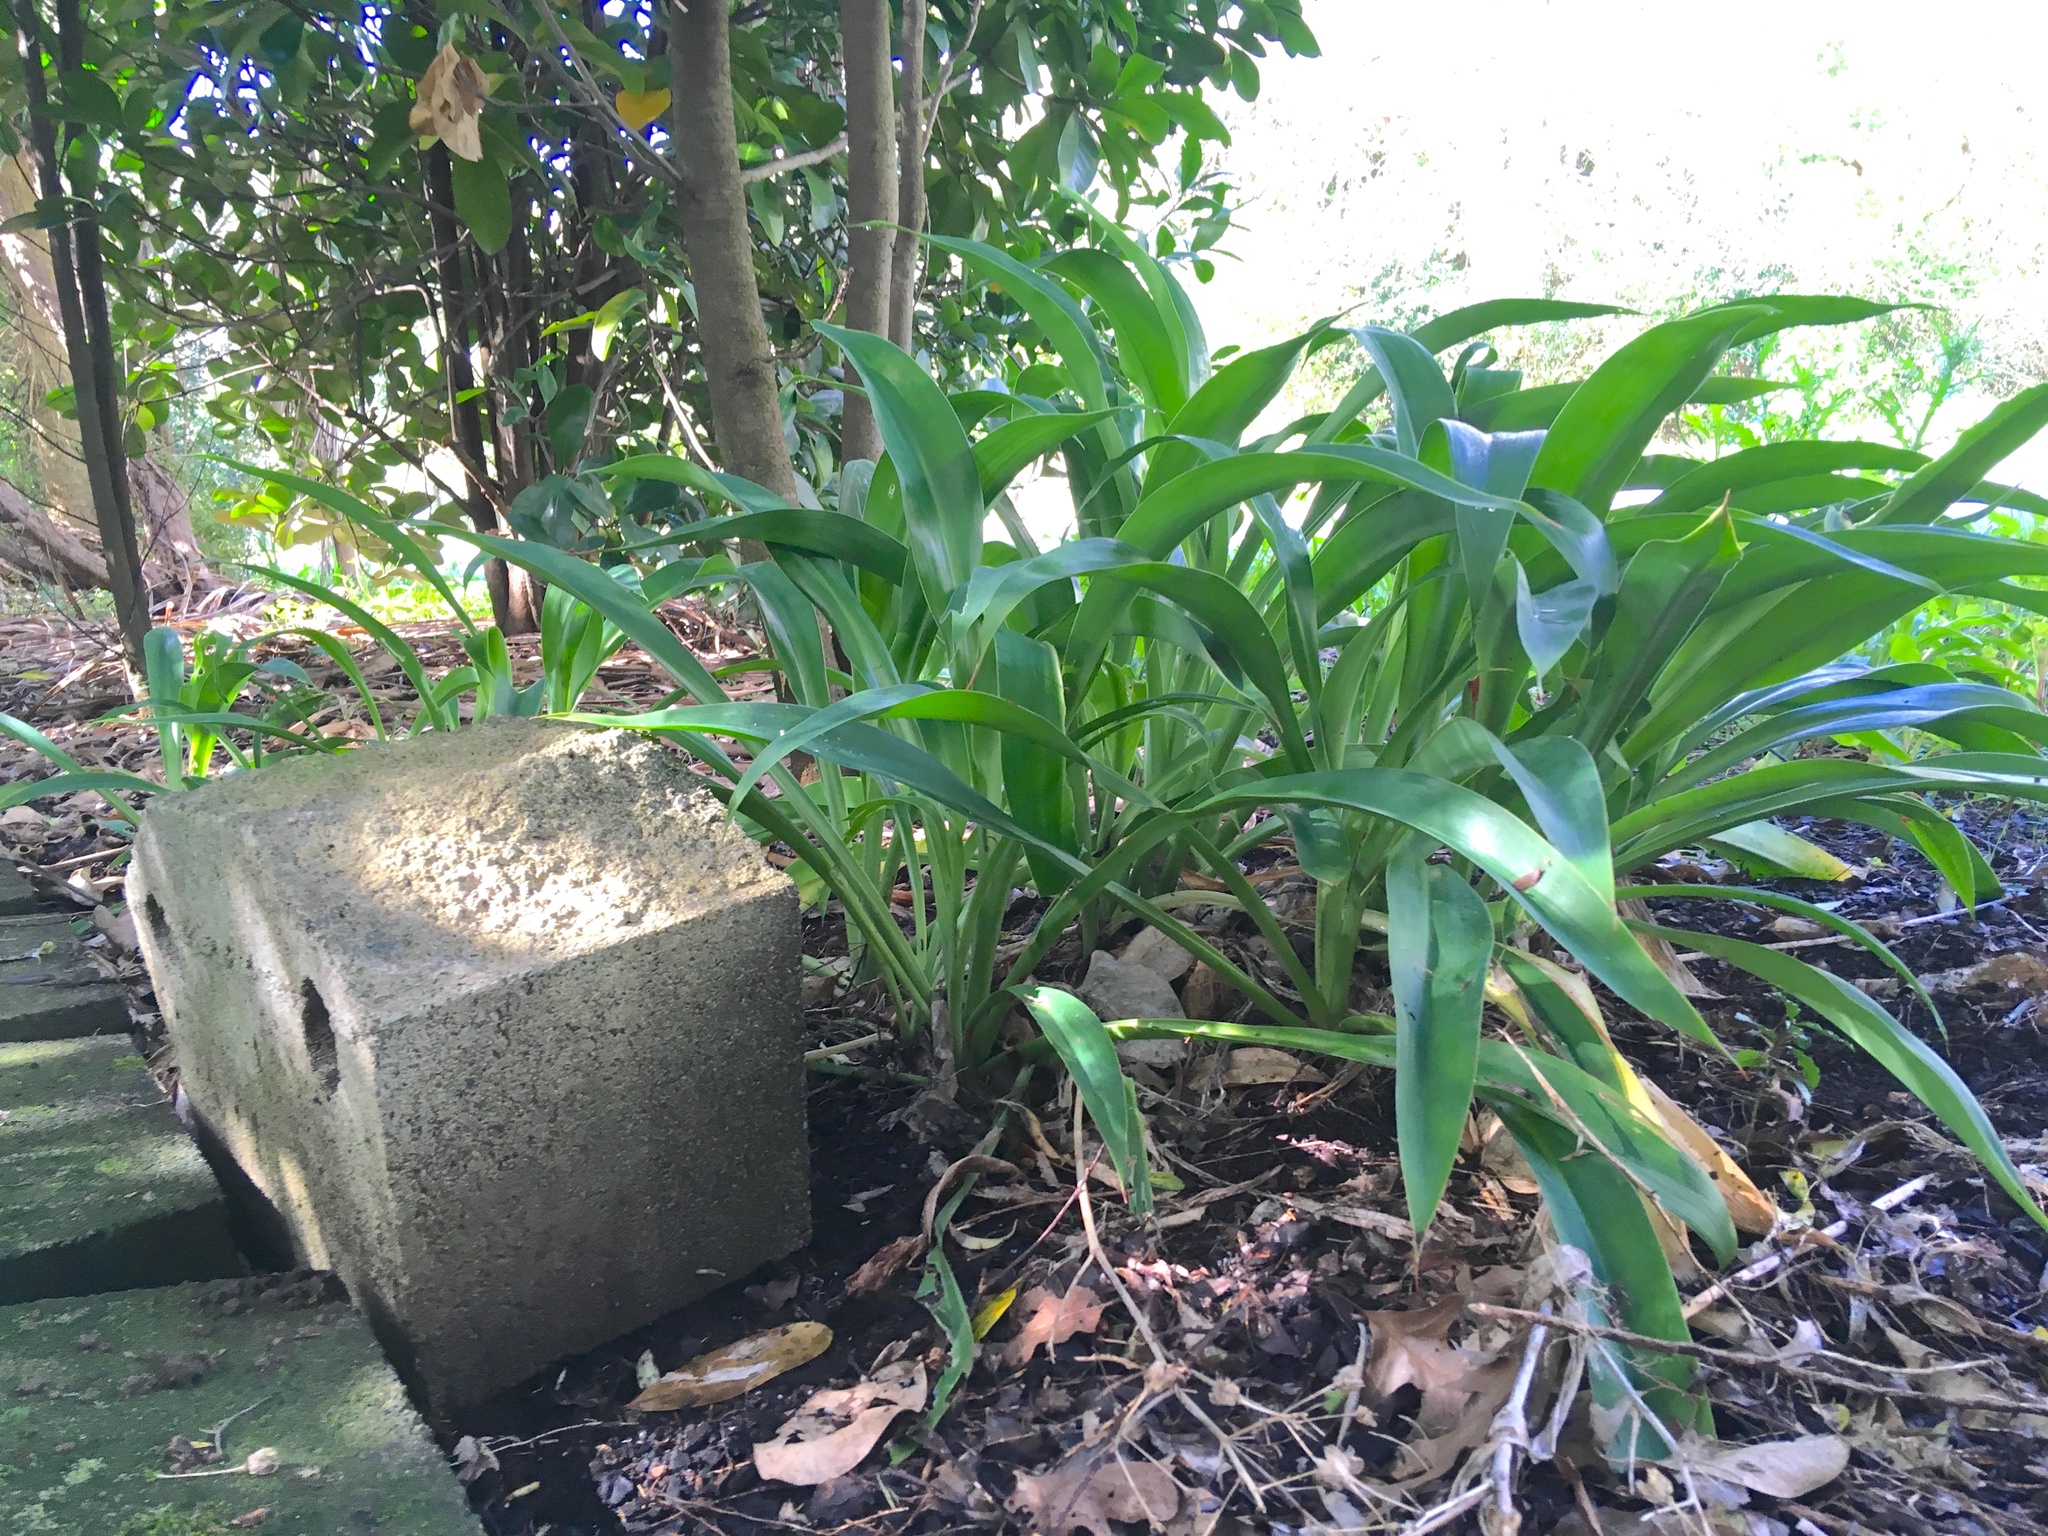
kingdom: Plantae
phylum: Tracheophyta
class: Liliopsida
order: Asparagales
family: Asparagaceae
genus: Arthropodium
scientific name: Arthropodium cirratum
